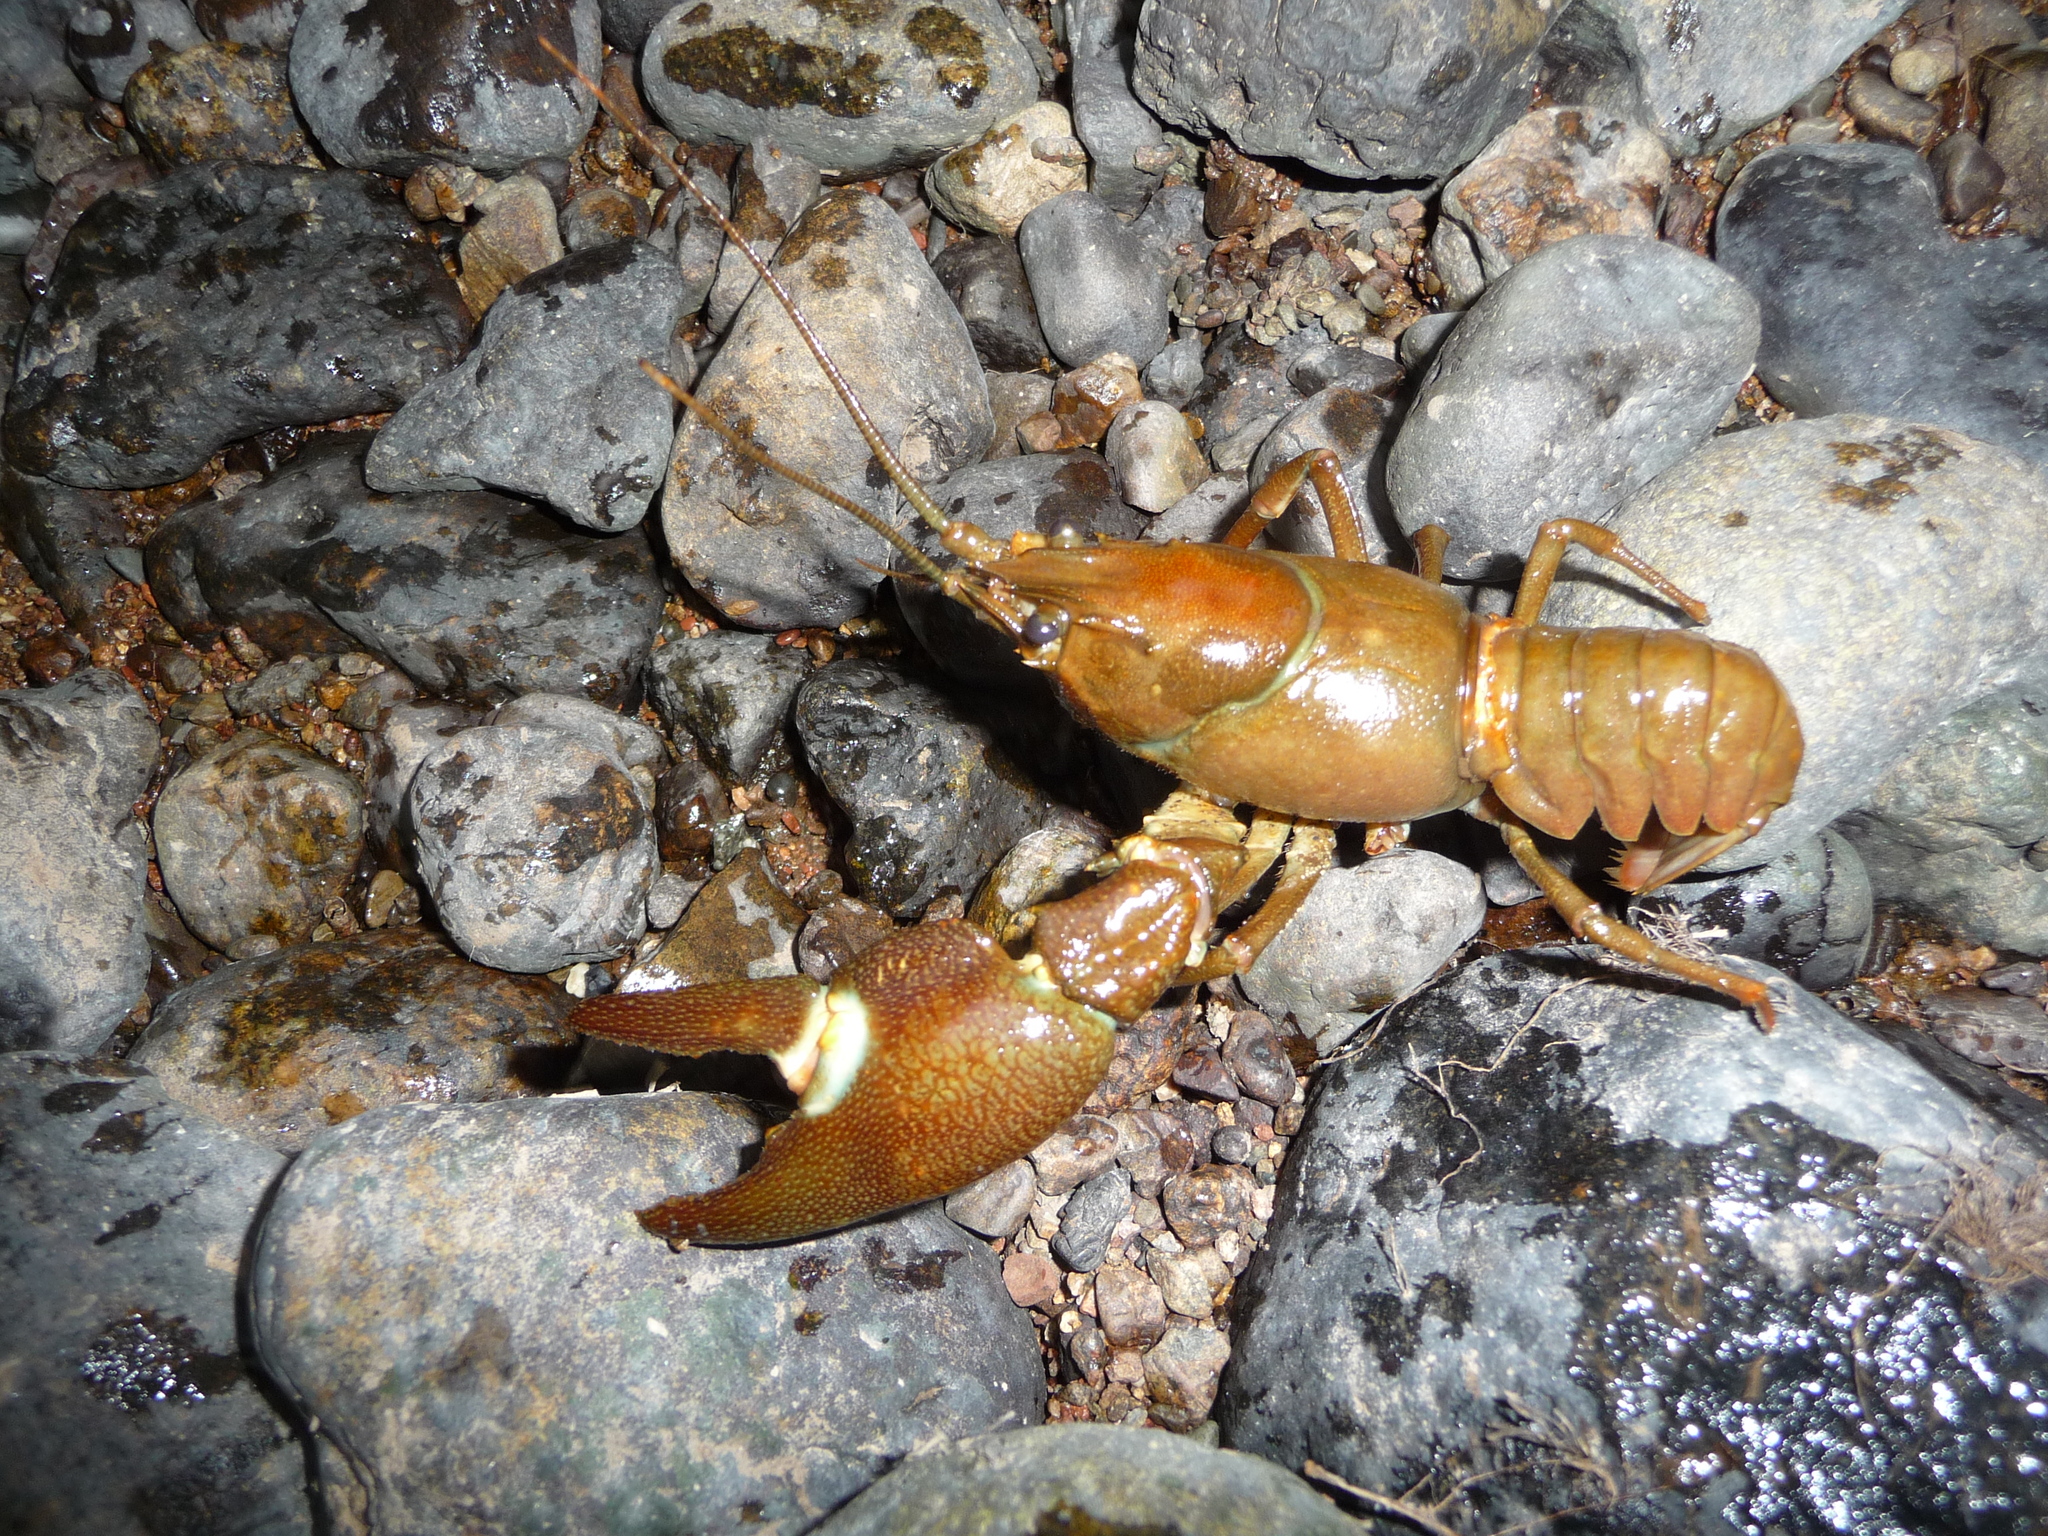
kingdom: Animalia
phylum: Arthropoda
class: Malacostraca
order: Decapoda
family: Astacidae
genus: Pacifastacus
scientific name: Pacifastacus leniusculus
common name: Signal crayfish
